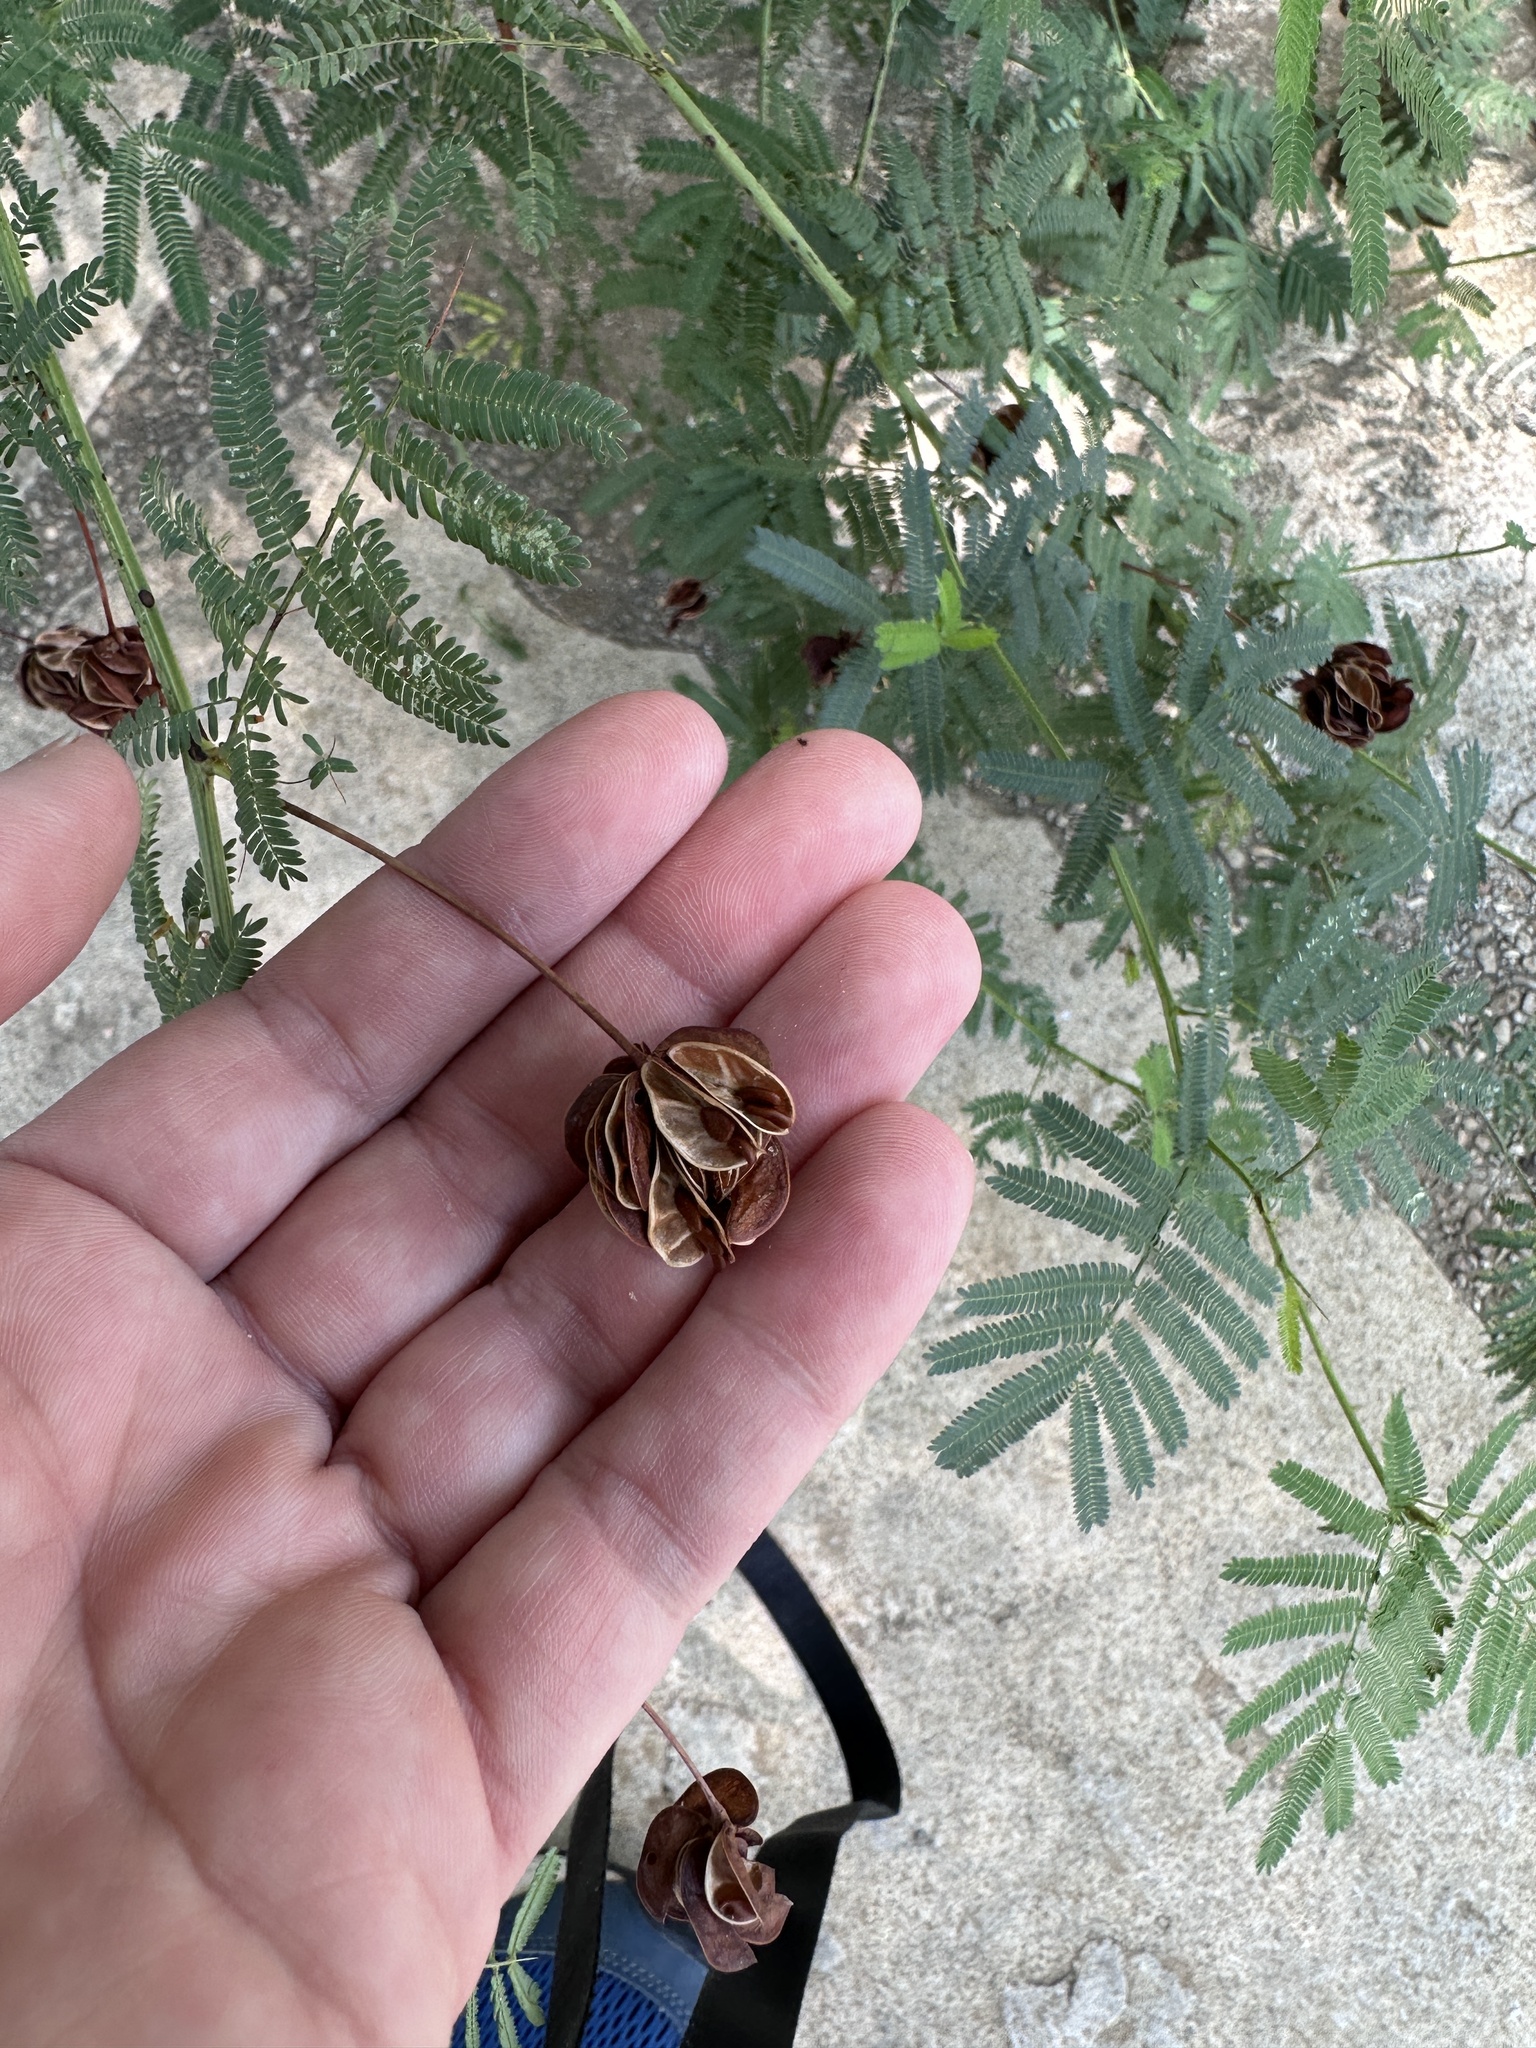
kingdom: Plantae
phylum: Tracheophyta
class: Magnoliopsida
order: Fabales
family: Fabaceae
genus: Desmanthus
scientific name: Desmanthus illinoensis
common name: Illinois bundle-flower
